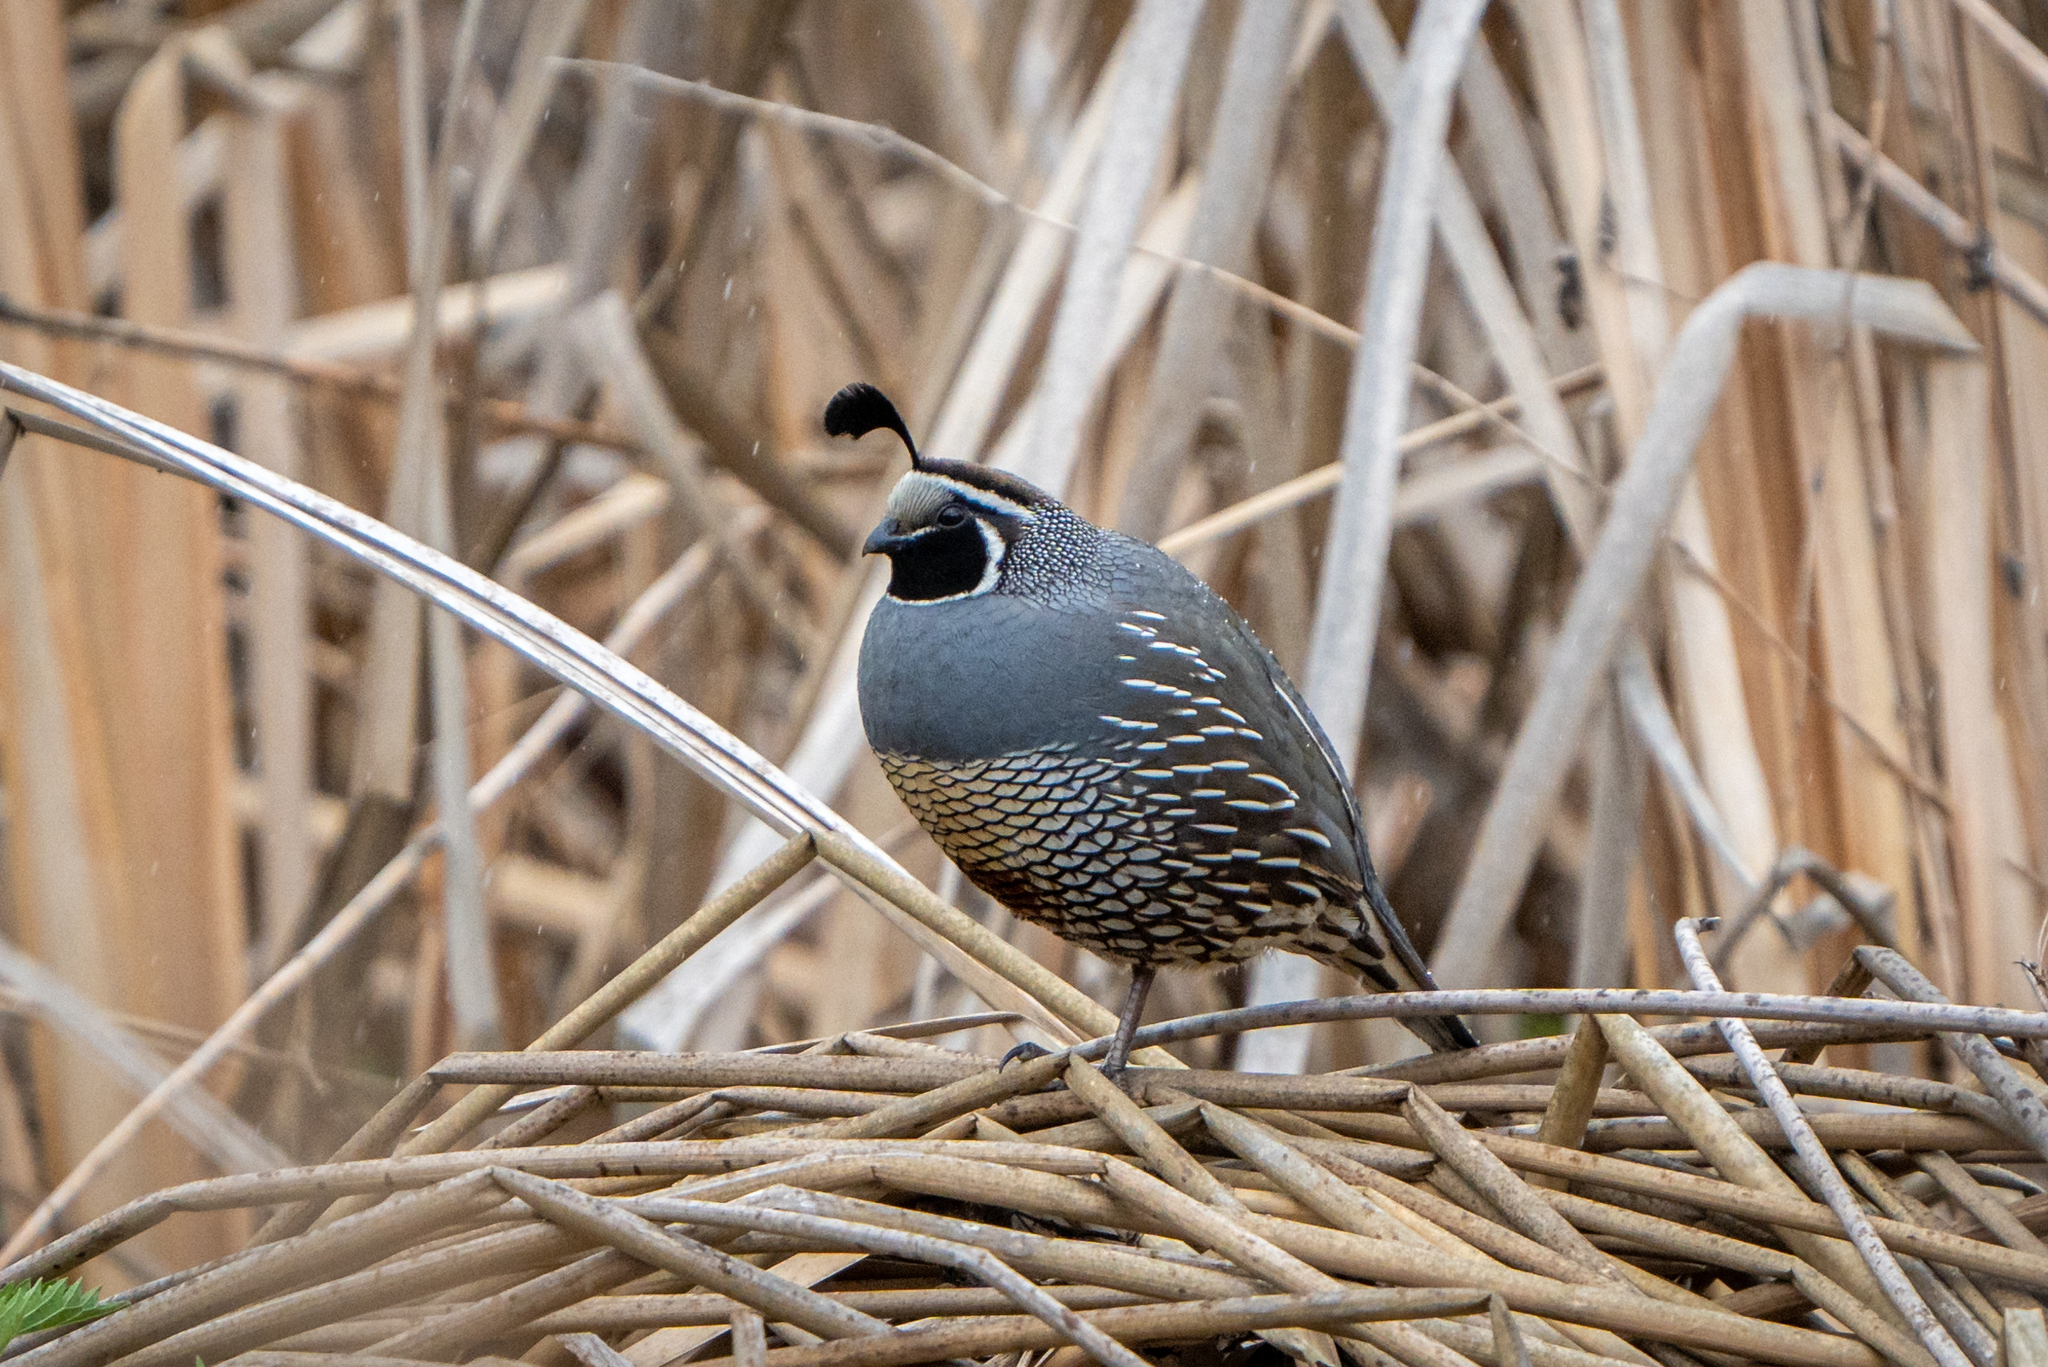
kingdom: Animalia
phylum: Chordata
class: Aves
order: Galliformes
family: Odontophoridae
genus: Callipepla
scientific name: Callipepla californica
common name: California quail
